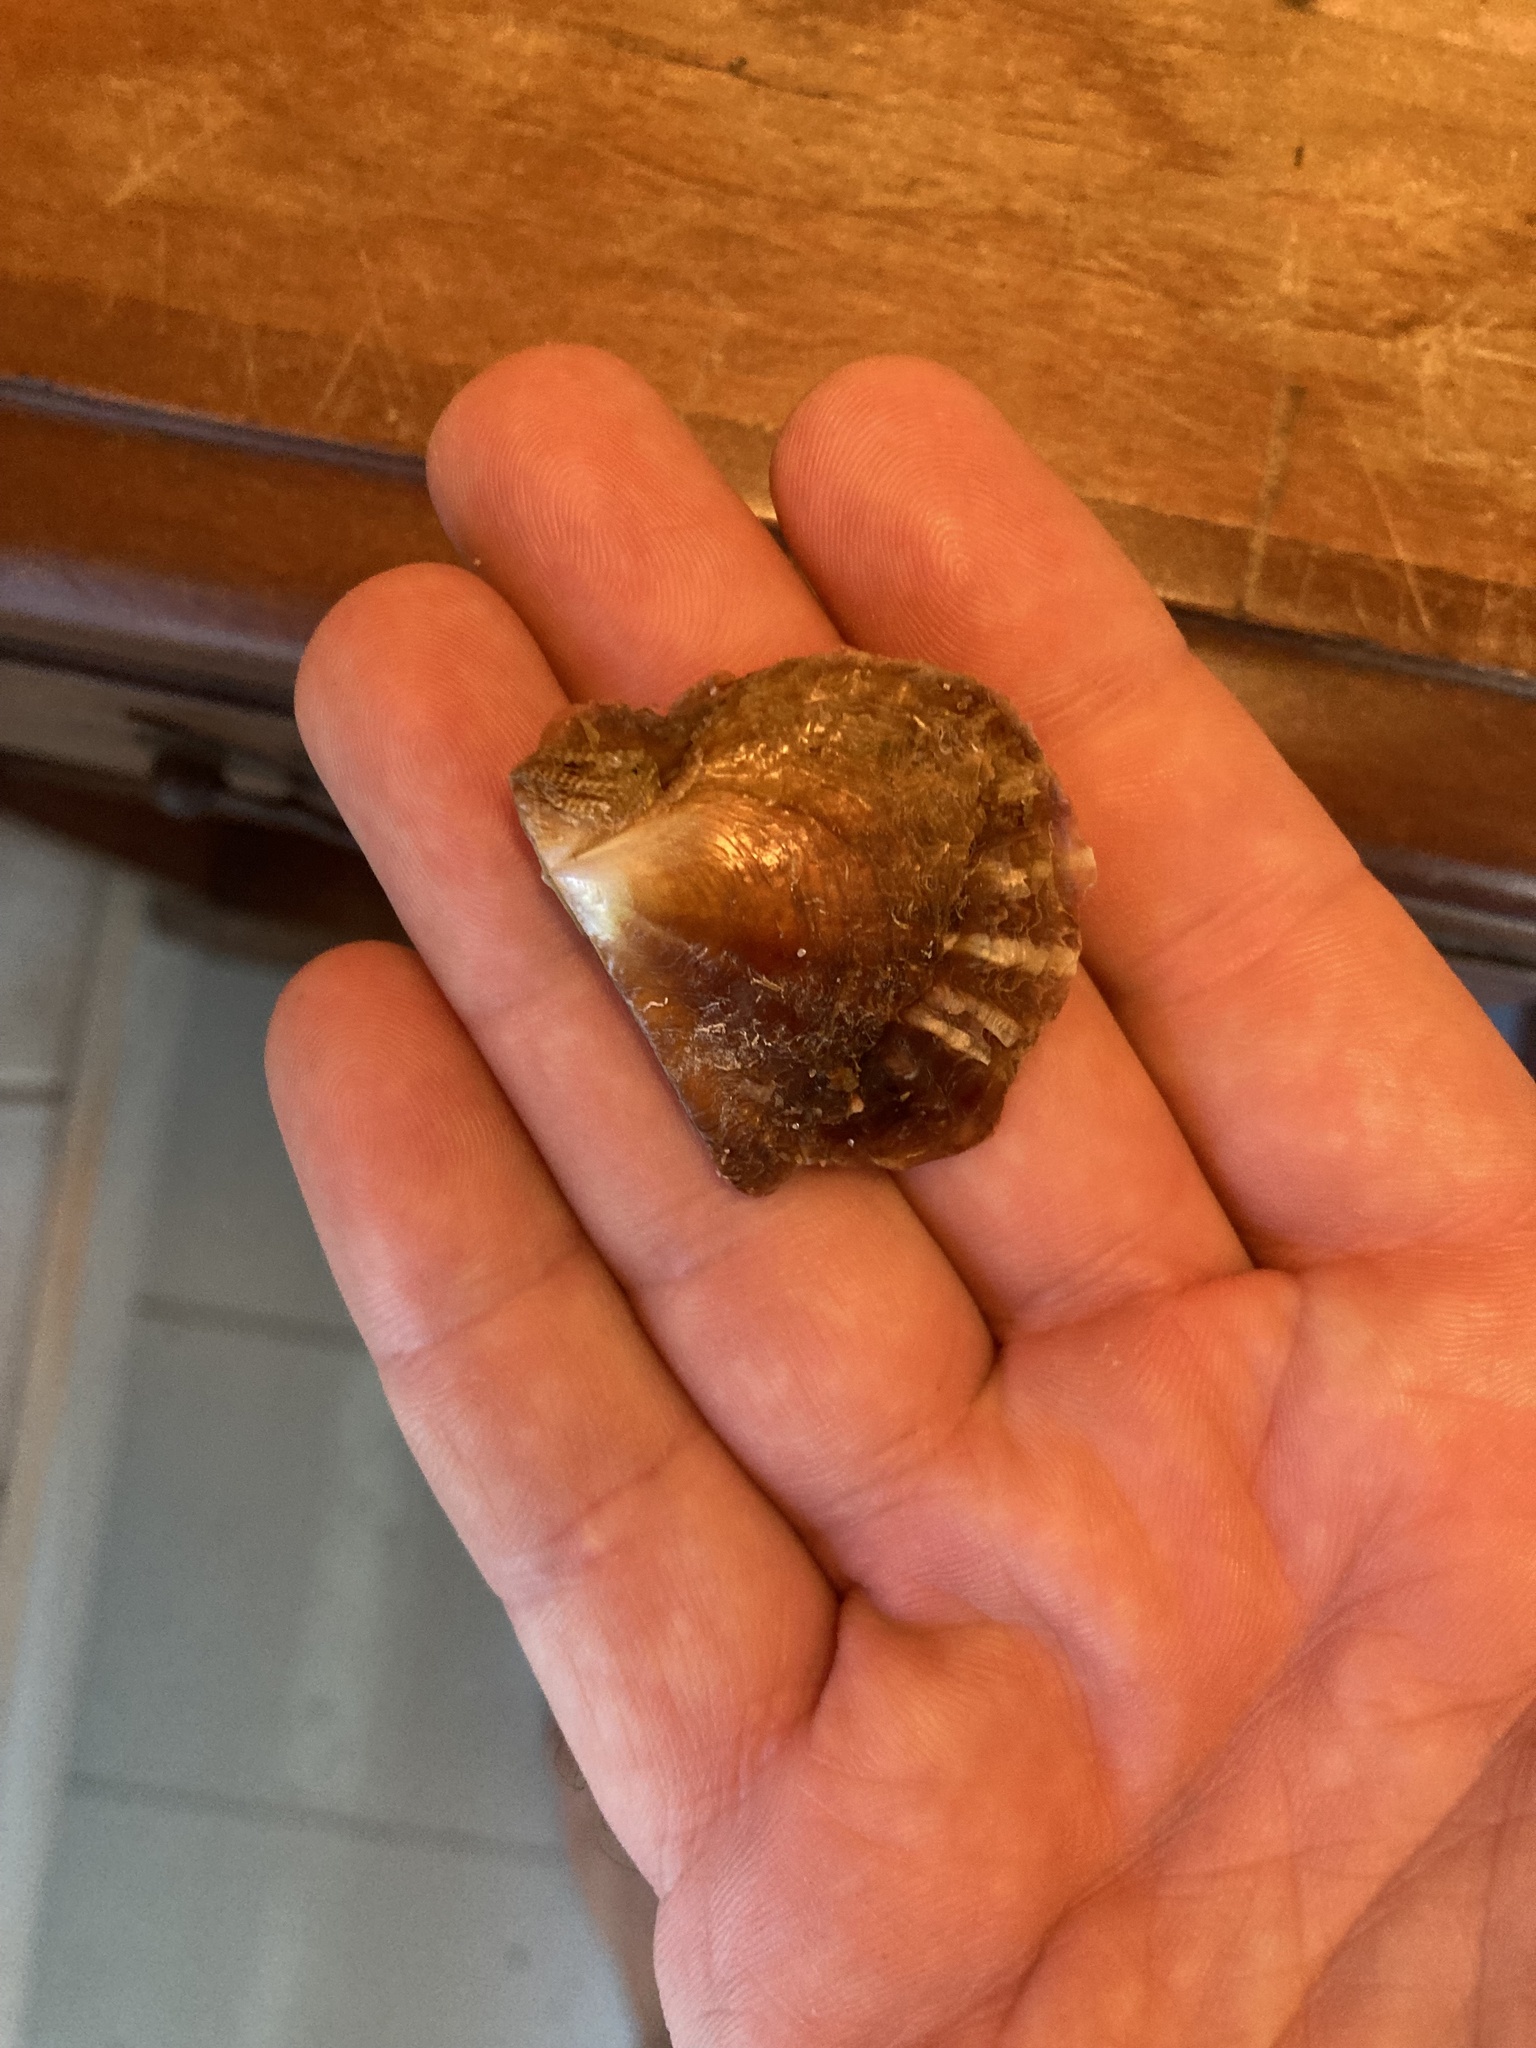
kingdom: Animalia
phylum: Mollusca
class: Bivalvia
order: Ostreida
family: Margaritidae
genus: Pinctada
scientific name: Pinctada imbricata
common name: Atlantic pearl-oyster
